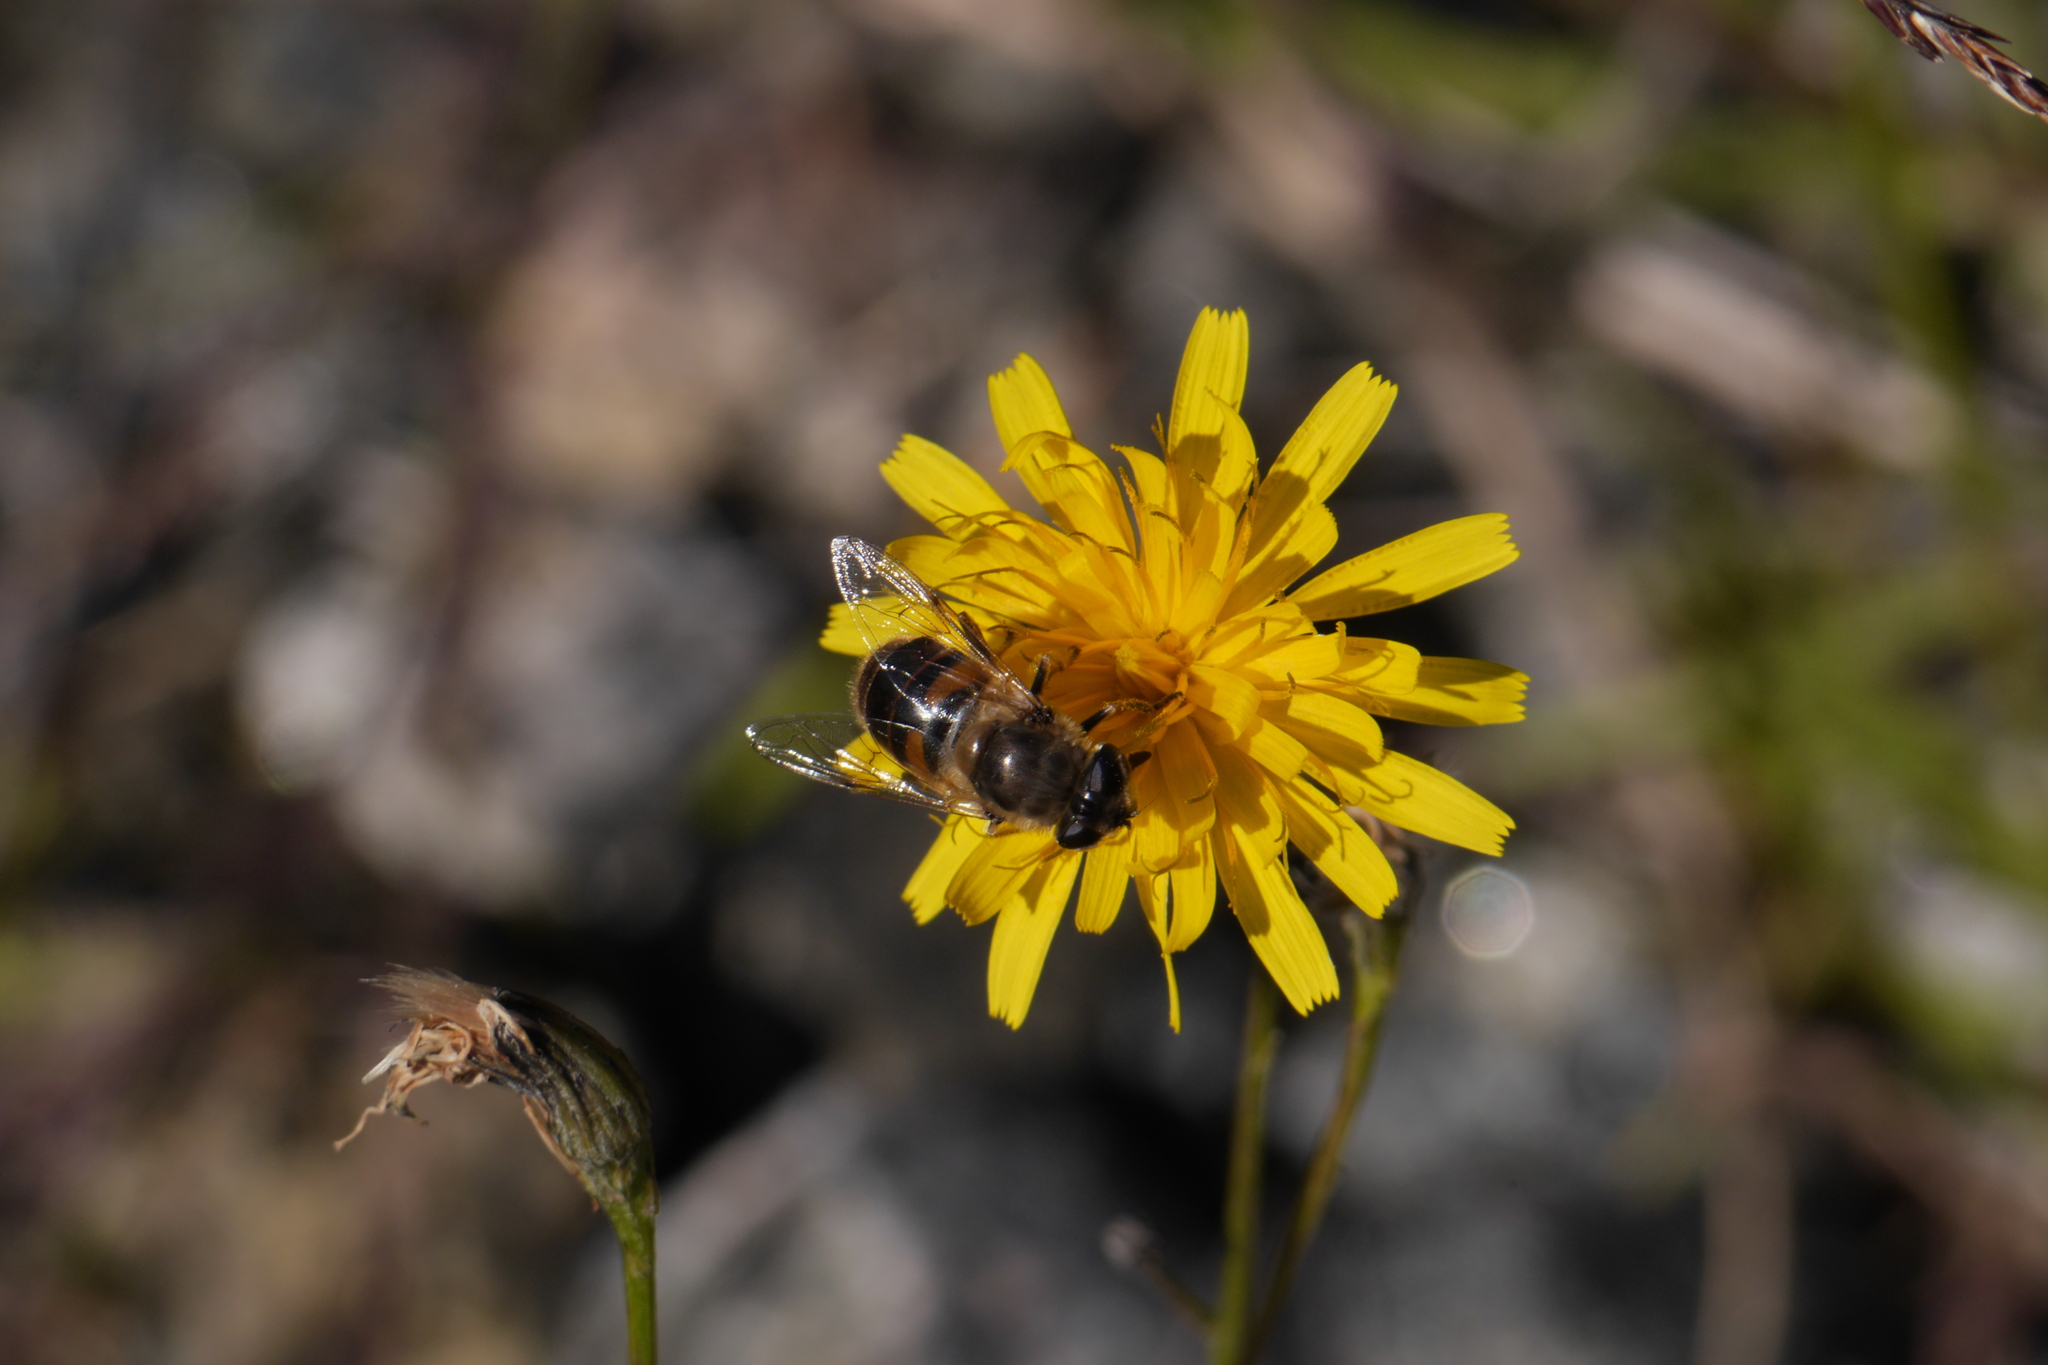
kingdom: Animalia
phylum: Arthropoda
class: Insecta
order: Diptera
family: Syrphidae
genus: Eristalis
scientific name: Eristalis tenax
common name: Drone fly
